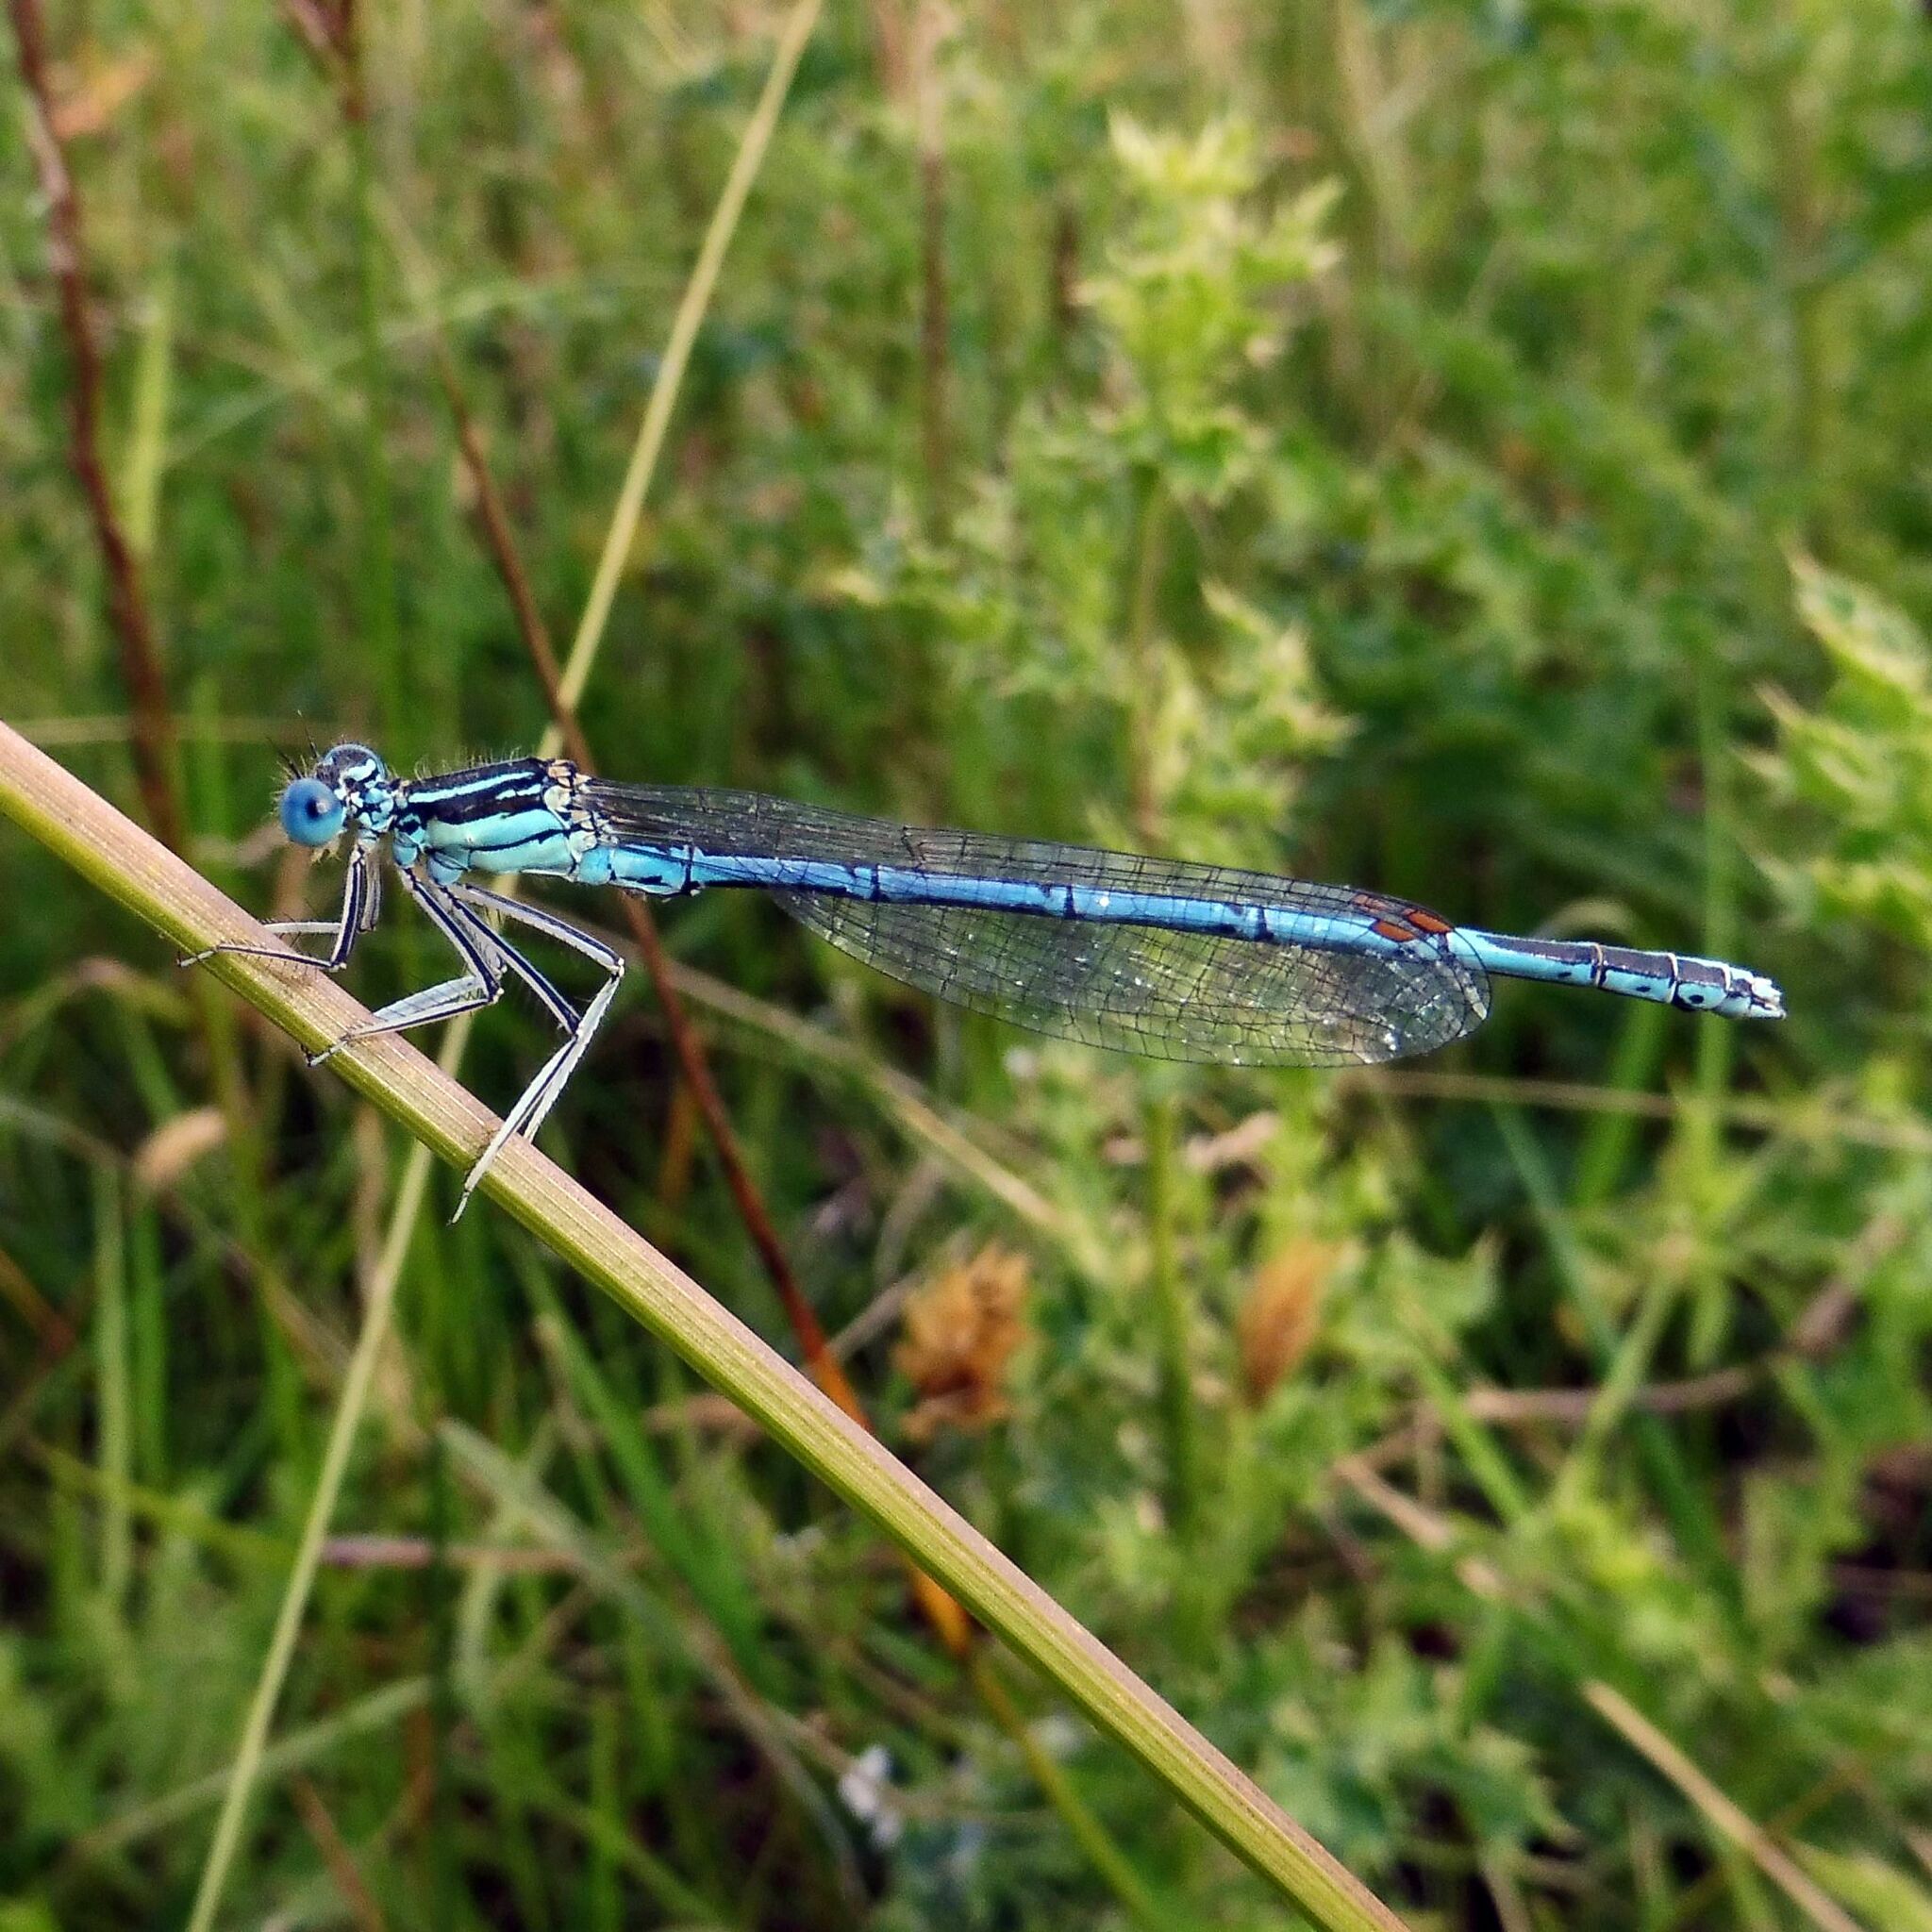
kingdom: Animalia
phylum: Arthropoda
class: Insecta
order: Odonata
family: Platycnemididae
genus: Platycnemis
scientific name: Platycnemis pennipes
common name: White-legged damselfly
